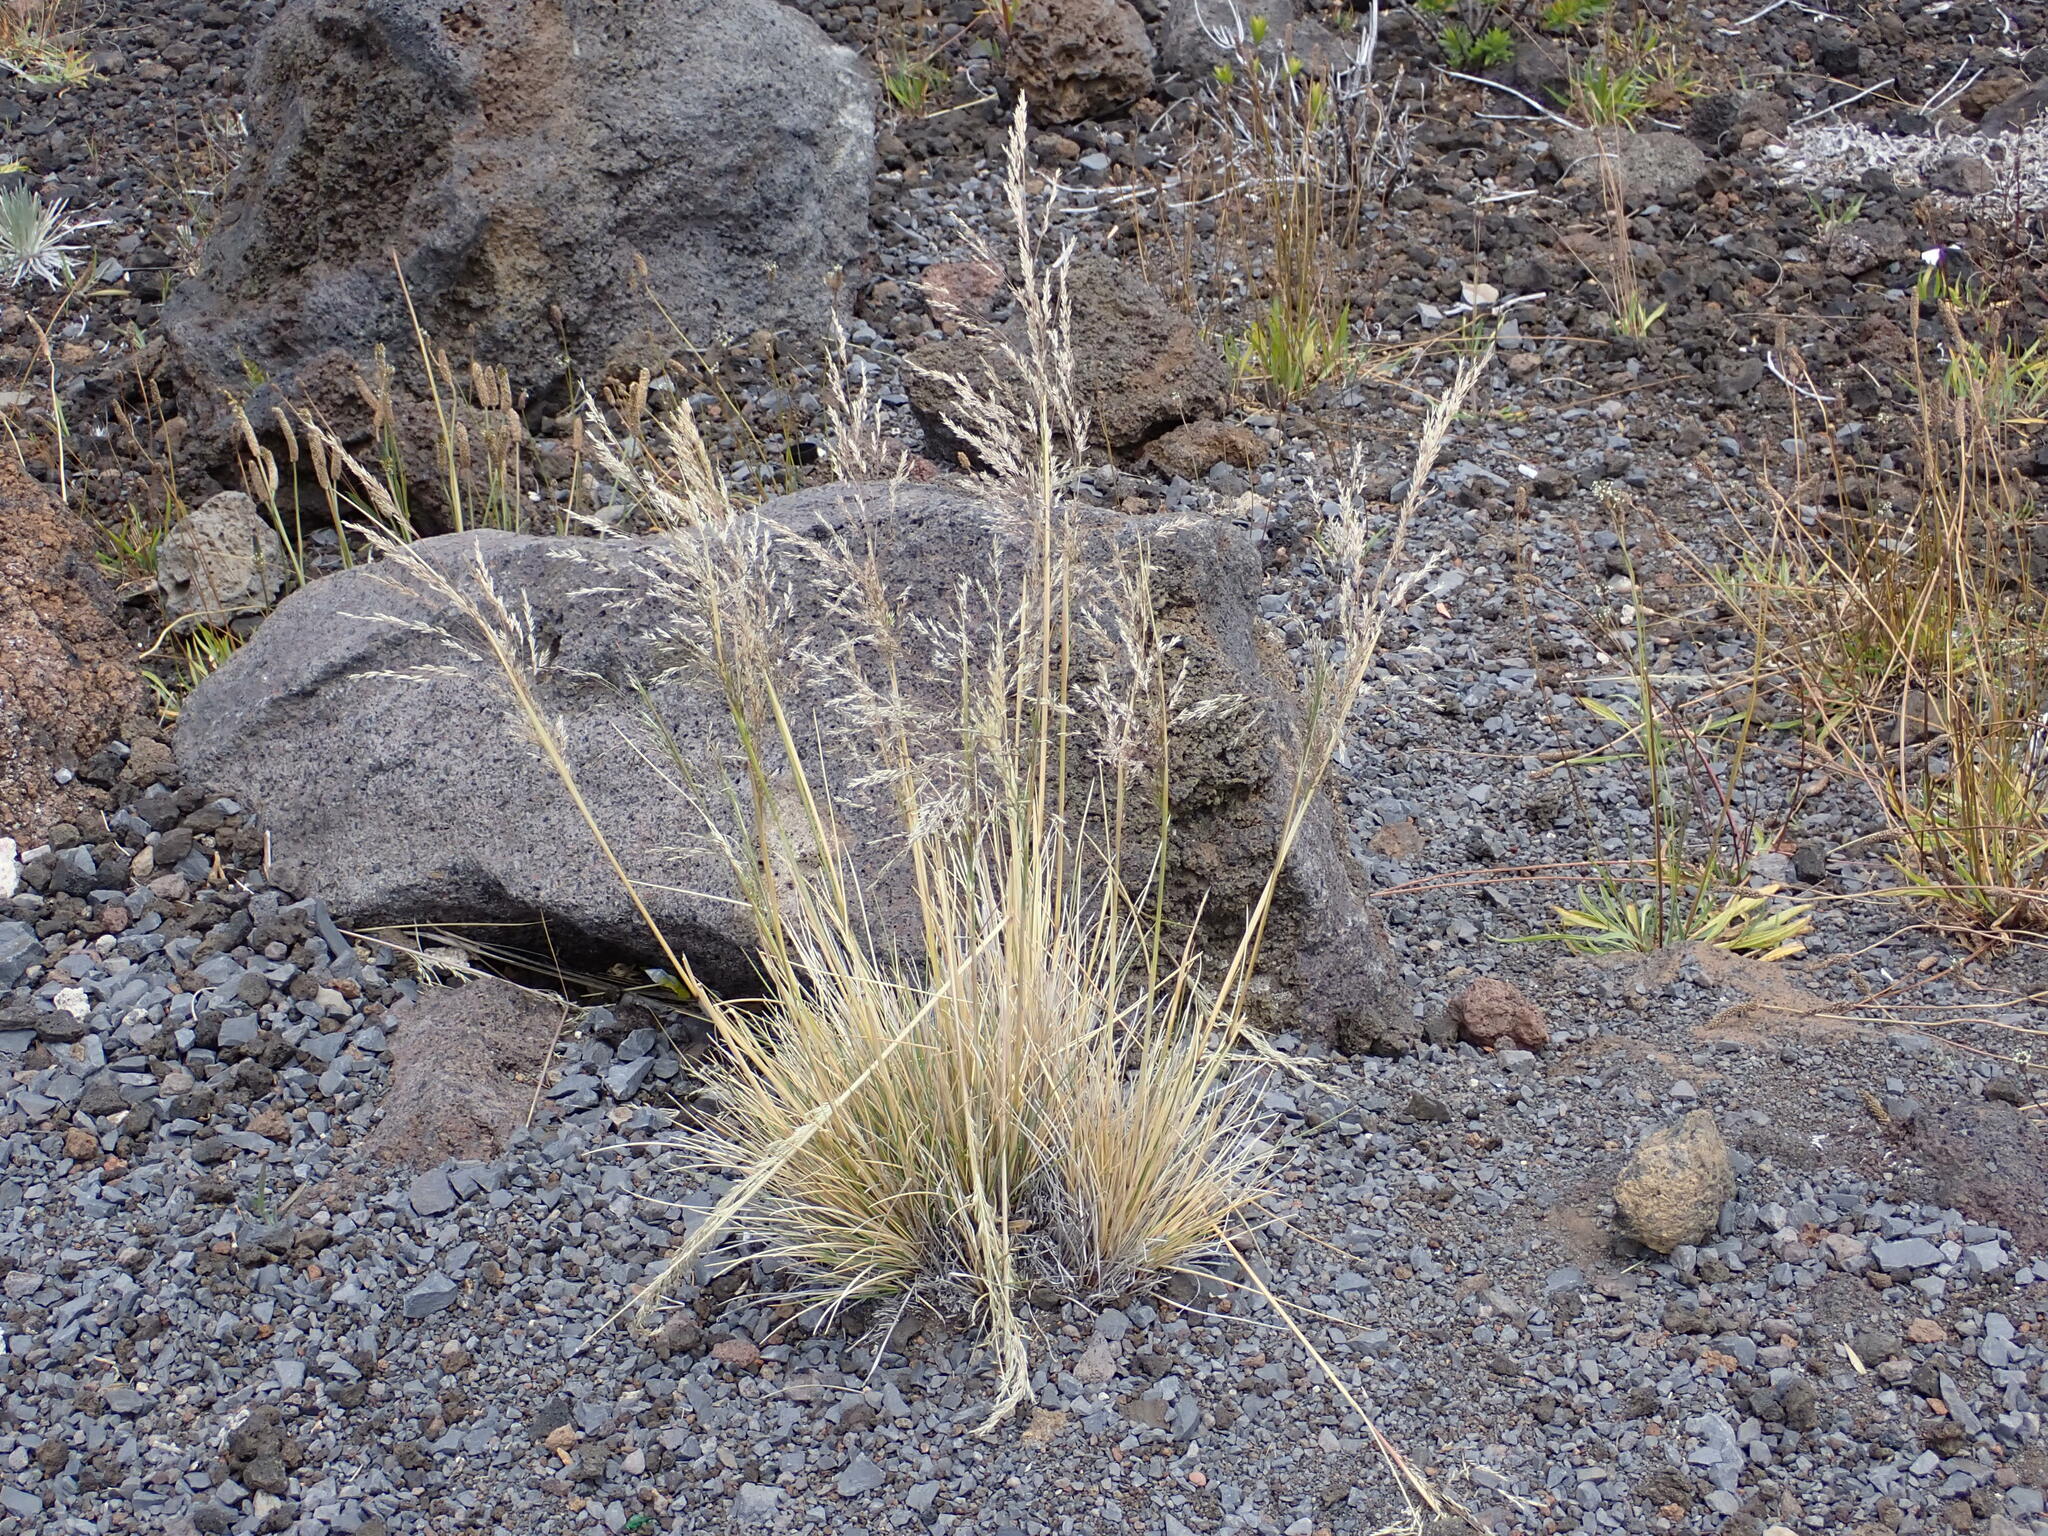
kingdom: Plantae
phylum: Tracheophyta
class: Liliopsida
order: Poales
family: Poaceae
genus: Deschampsia
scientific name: Deschampsia nubigena
